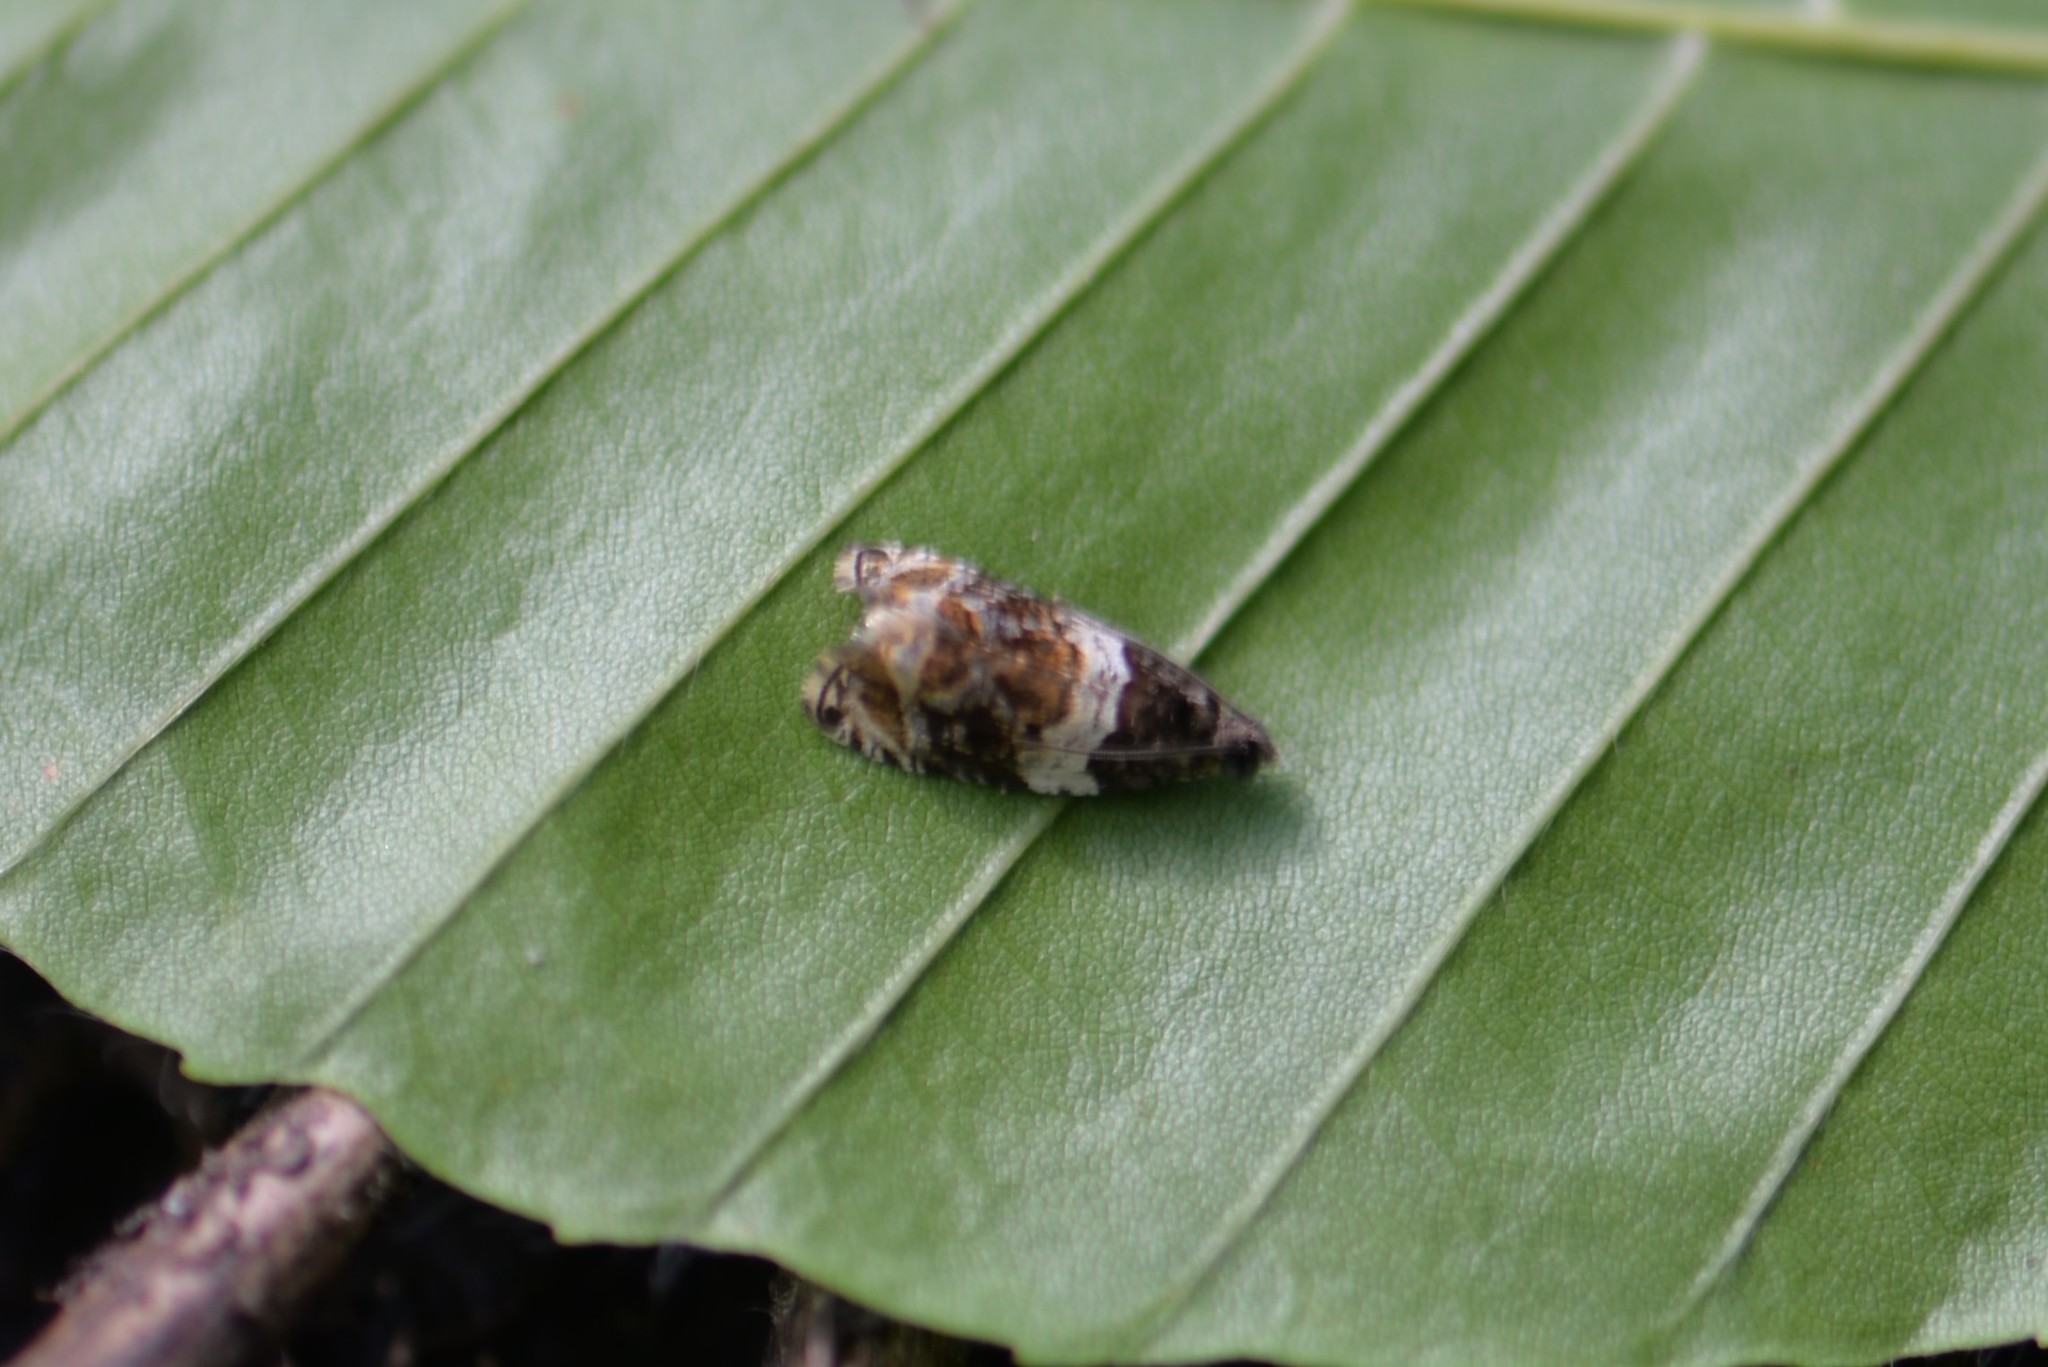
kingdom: Animalia
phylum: Arthropoda
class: Insecta
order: Lepidoptera
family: Tortricidae
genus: Olethreutes
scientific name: Olethreutes fasciatana
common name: Banded olethreutes moth
